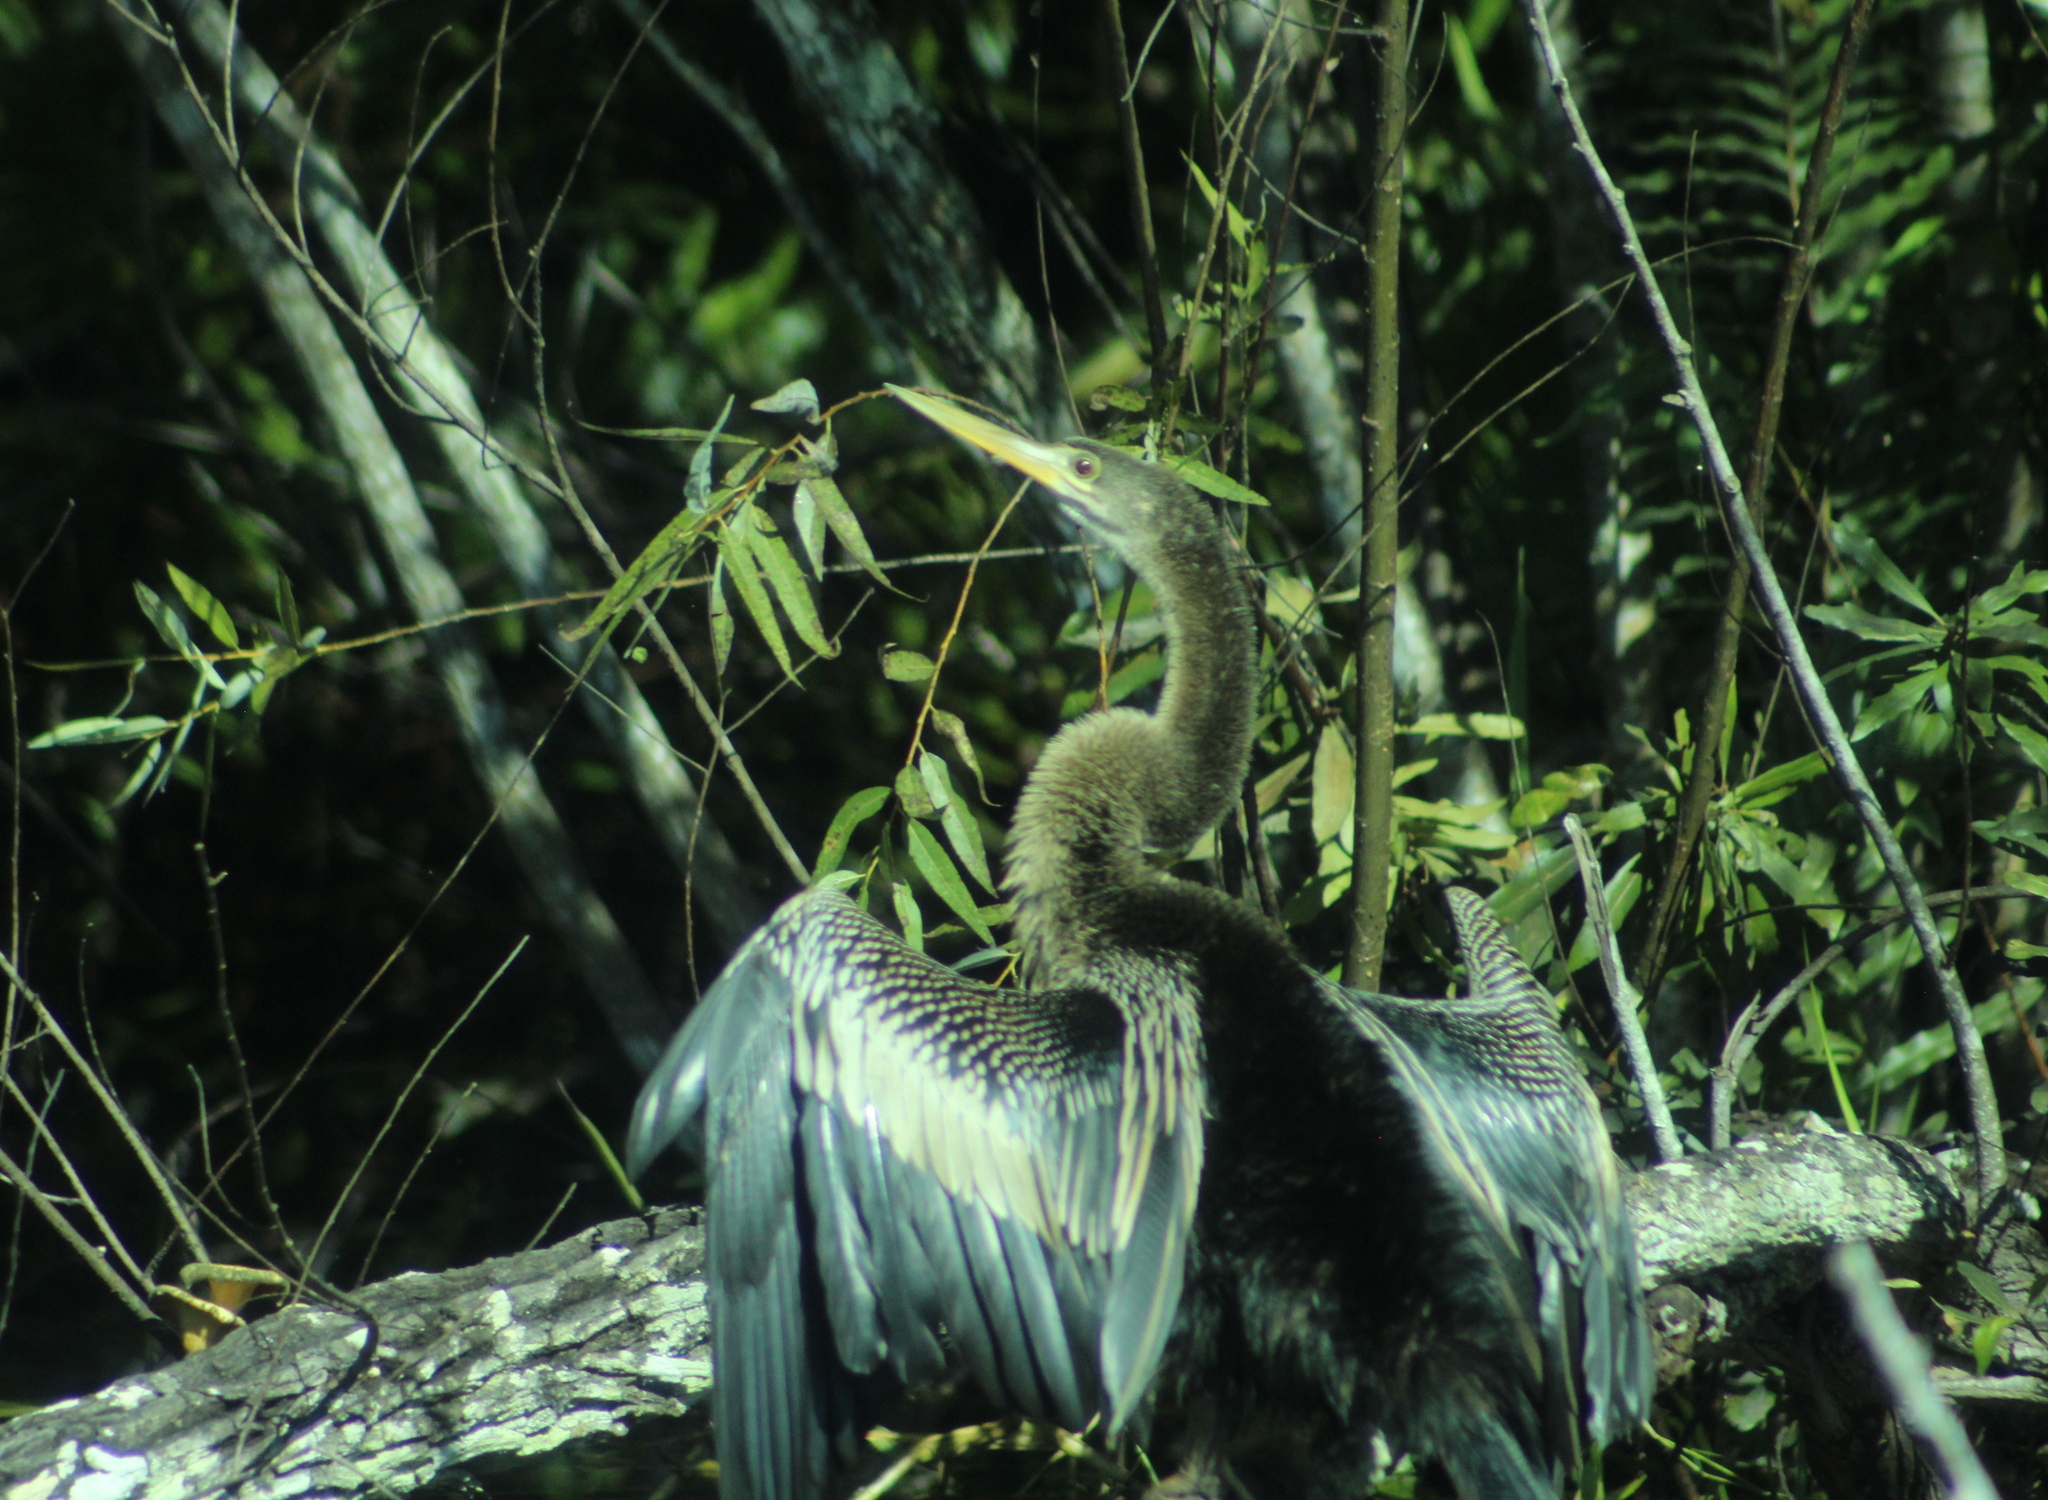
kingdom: Animalia
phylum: Chordata
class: Aves
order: Suliformes
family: Anhingidae
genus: Anhinga
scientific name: Anhinga anhinga
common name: Anhinga
